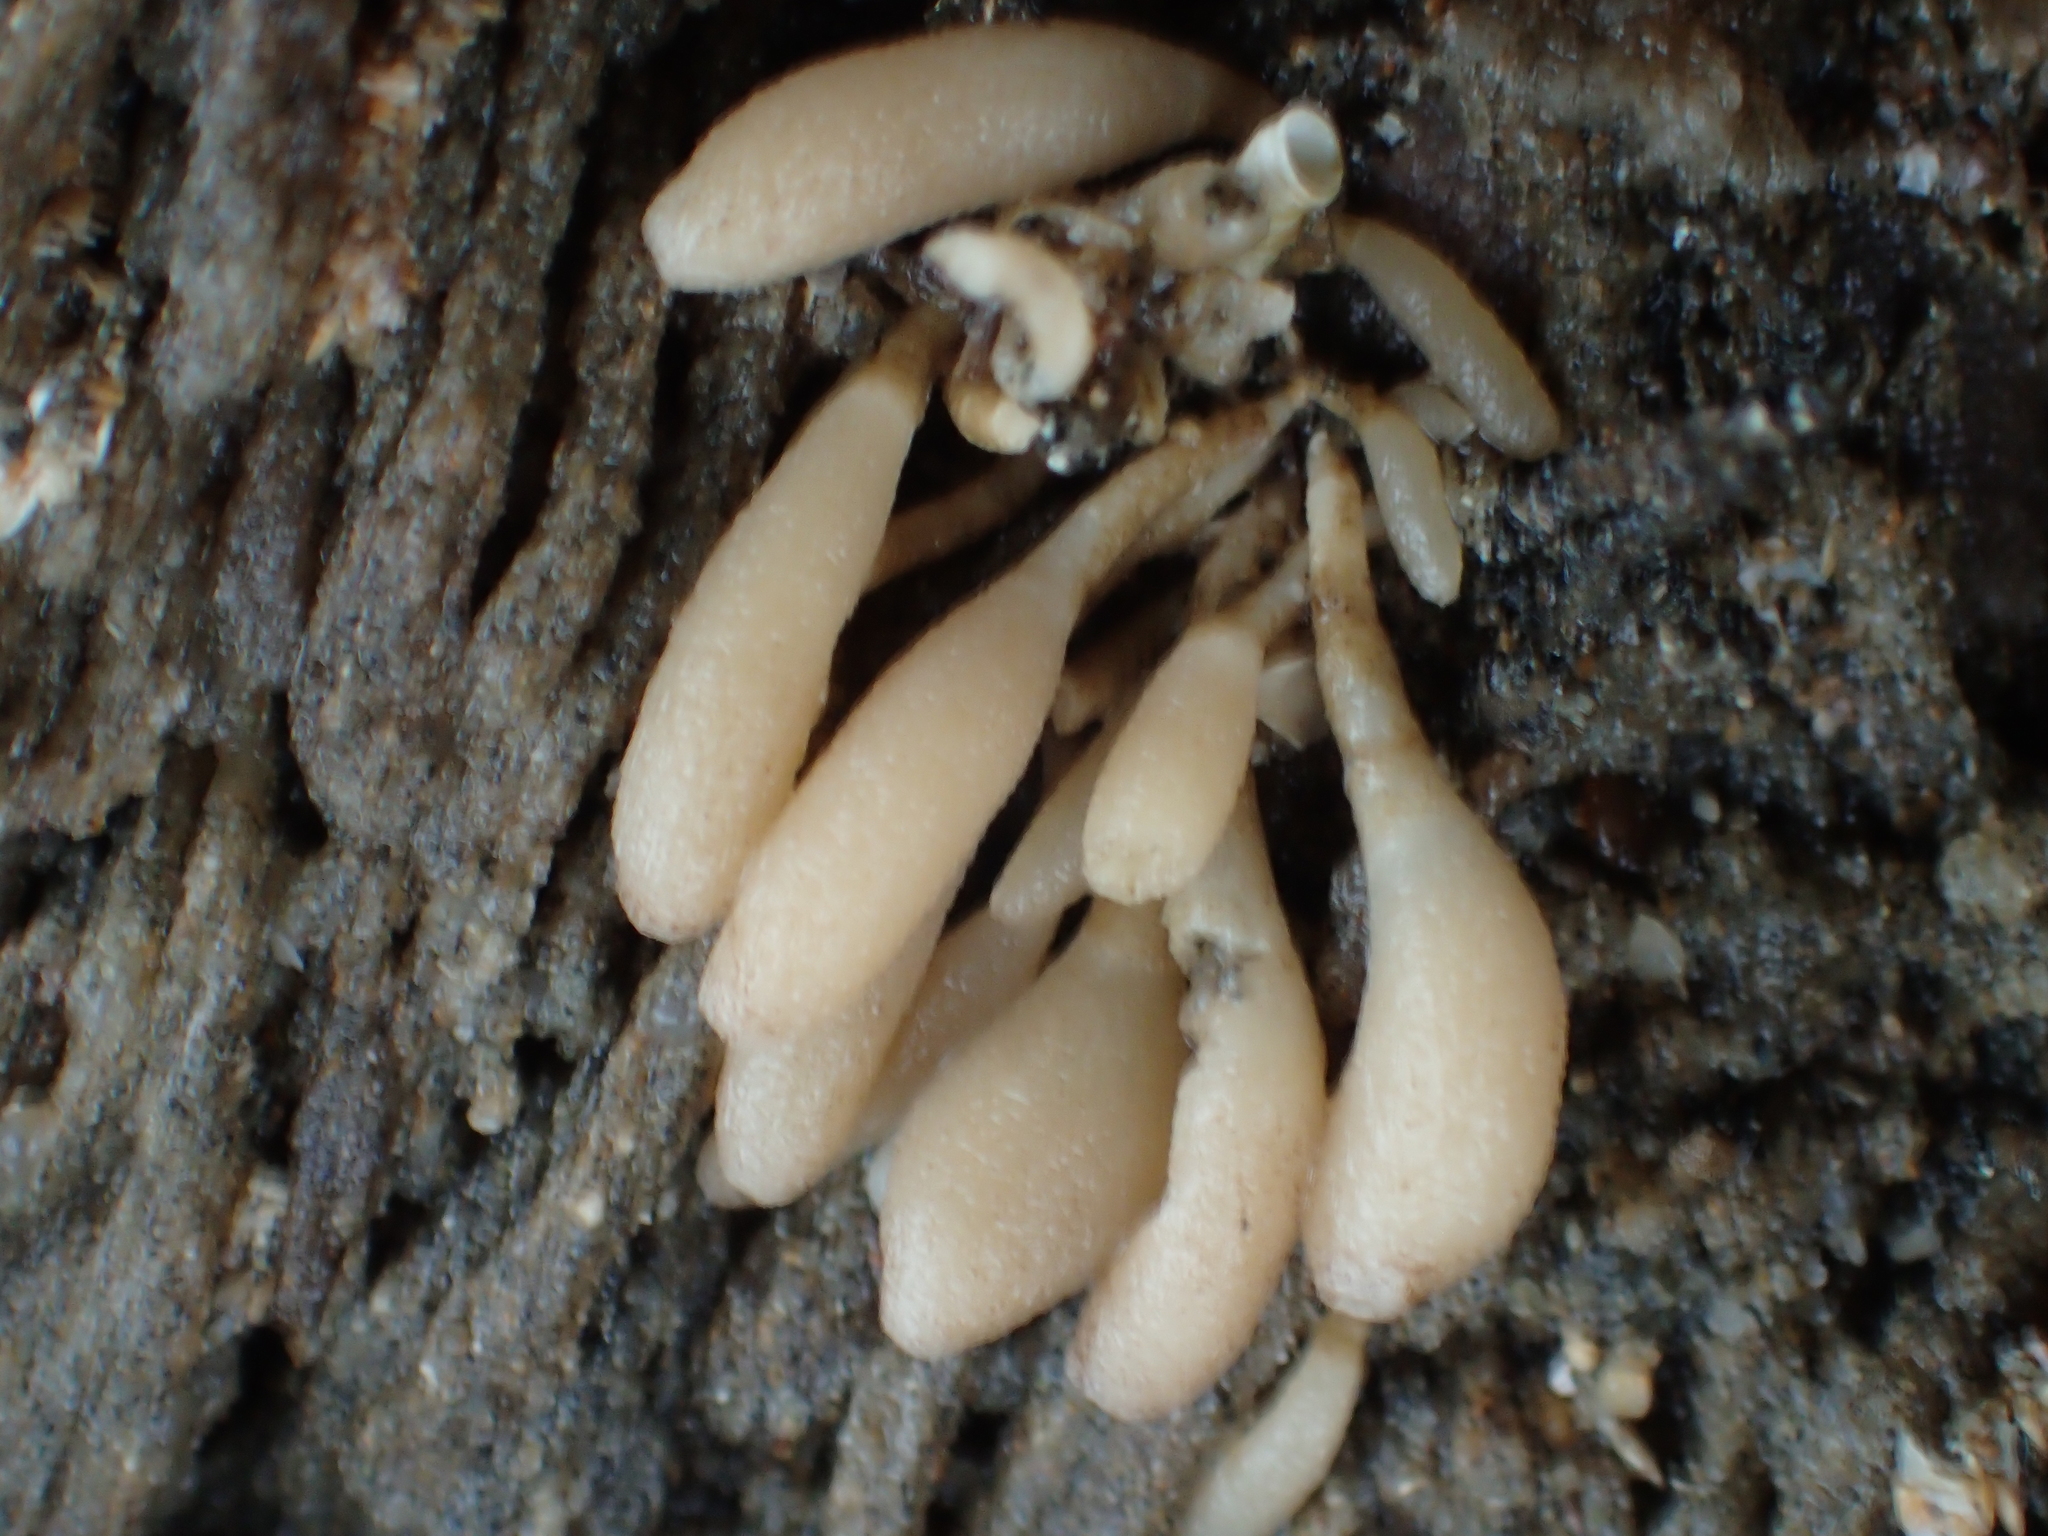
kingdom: Animalia
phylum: Porifera
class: Calcarea
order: Leucosolenida
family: Amphoriscidae
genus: Leucilla
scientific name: Leucilla nuttingi
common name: Nutting's sponge
